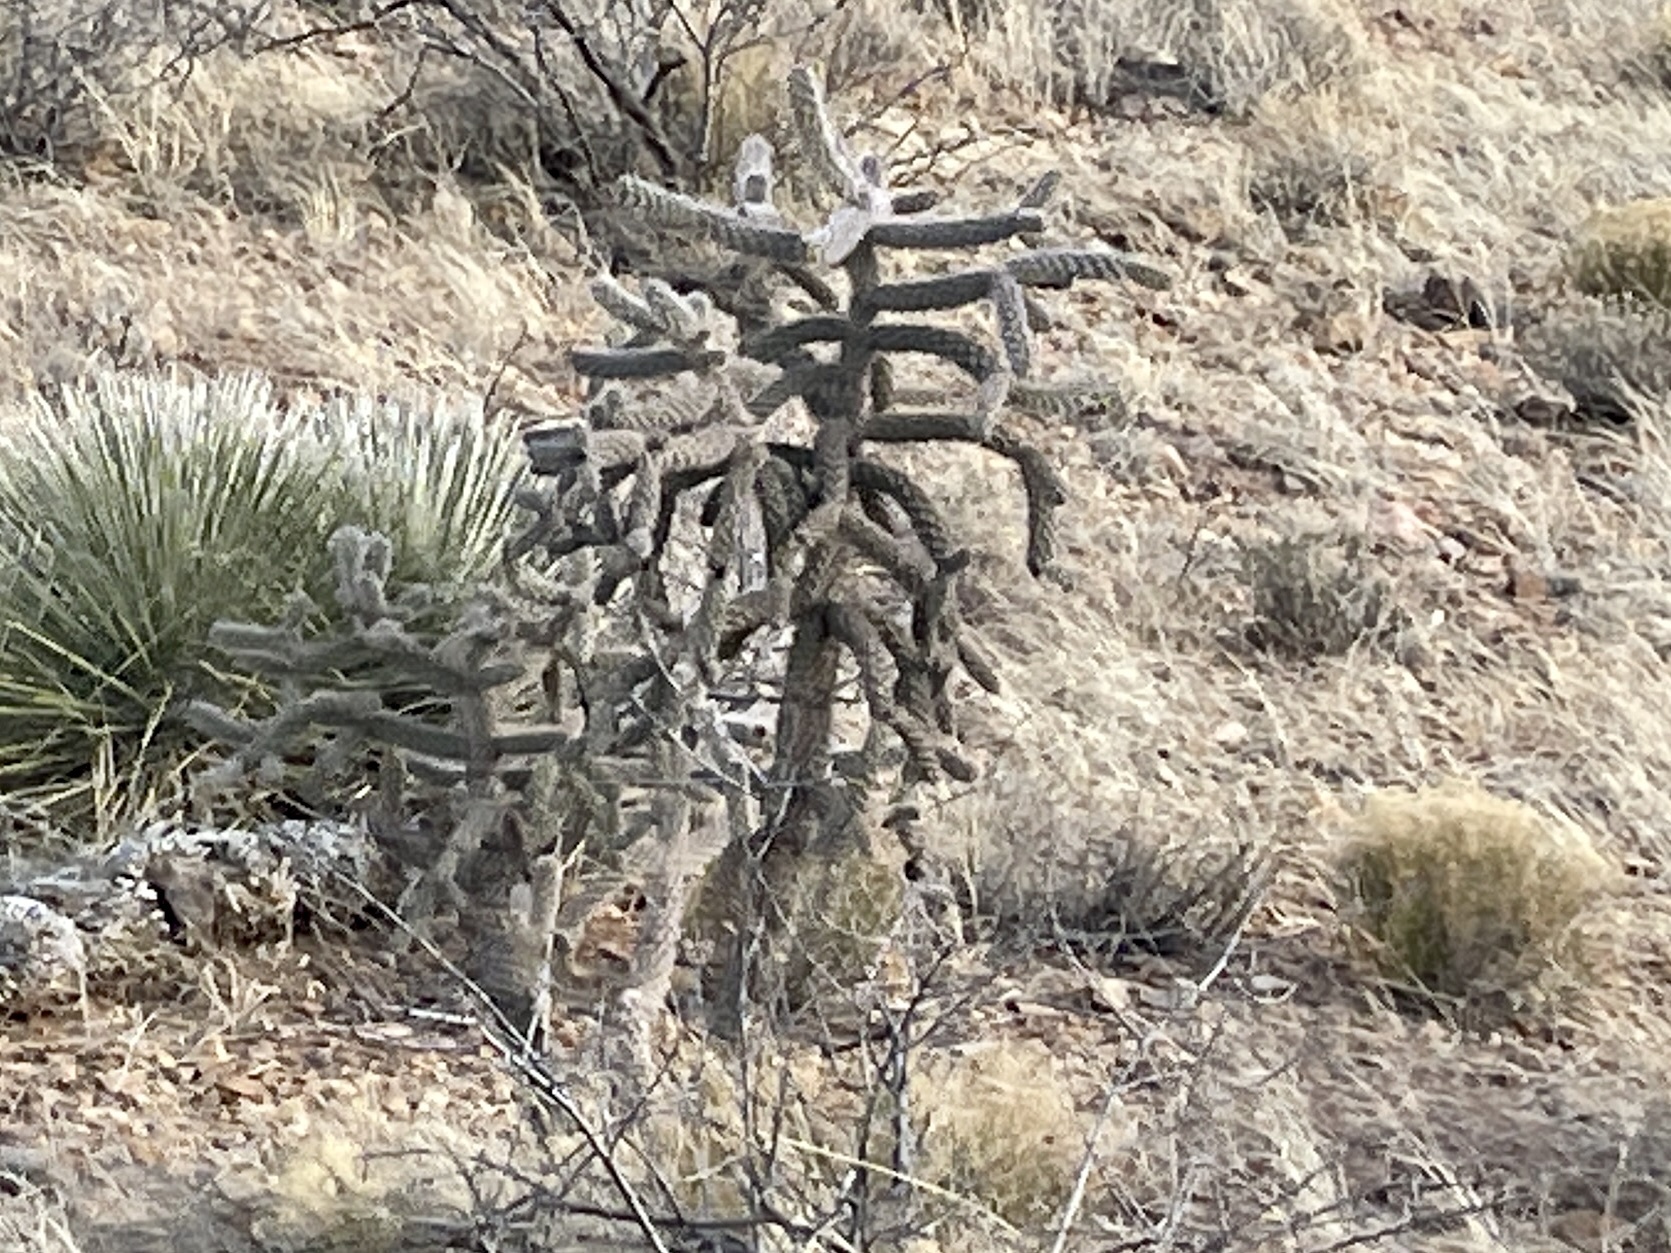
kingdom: Plantae
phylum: Tracheophyta
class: Magnoliopsida
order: Caryophyllales
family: Cactaceae
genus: Cylindropuntia
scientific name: Cylindropuntia imbricata
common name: Candelabrum cactus
